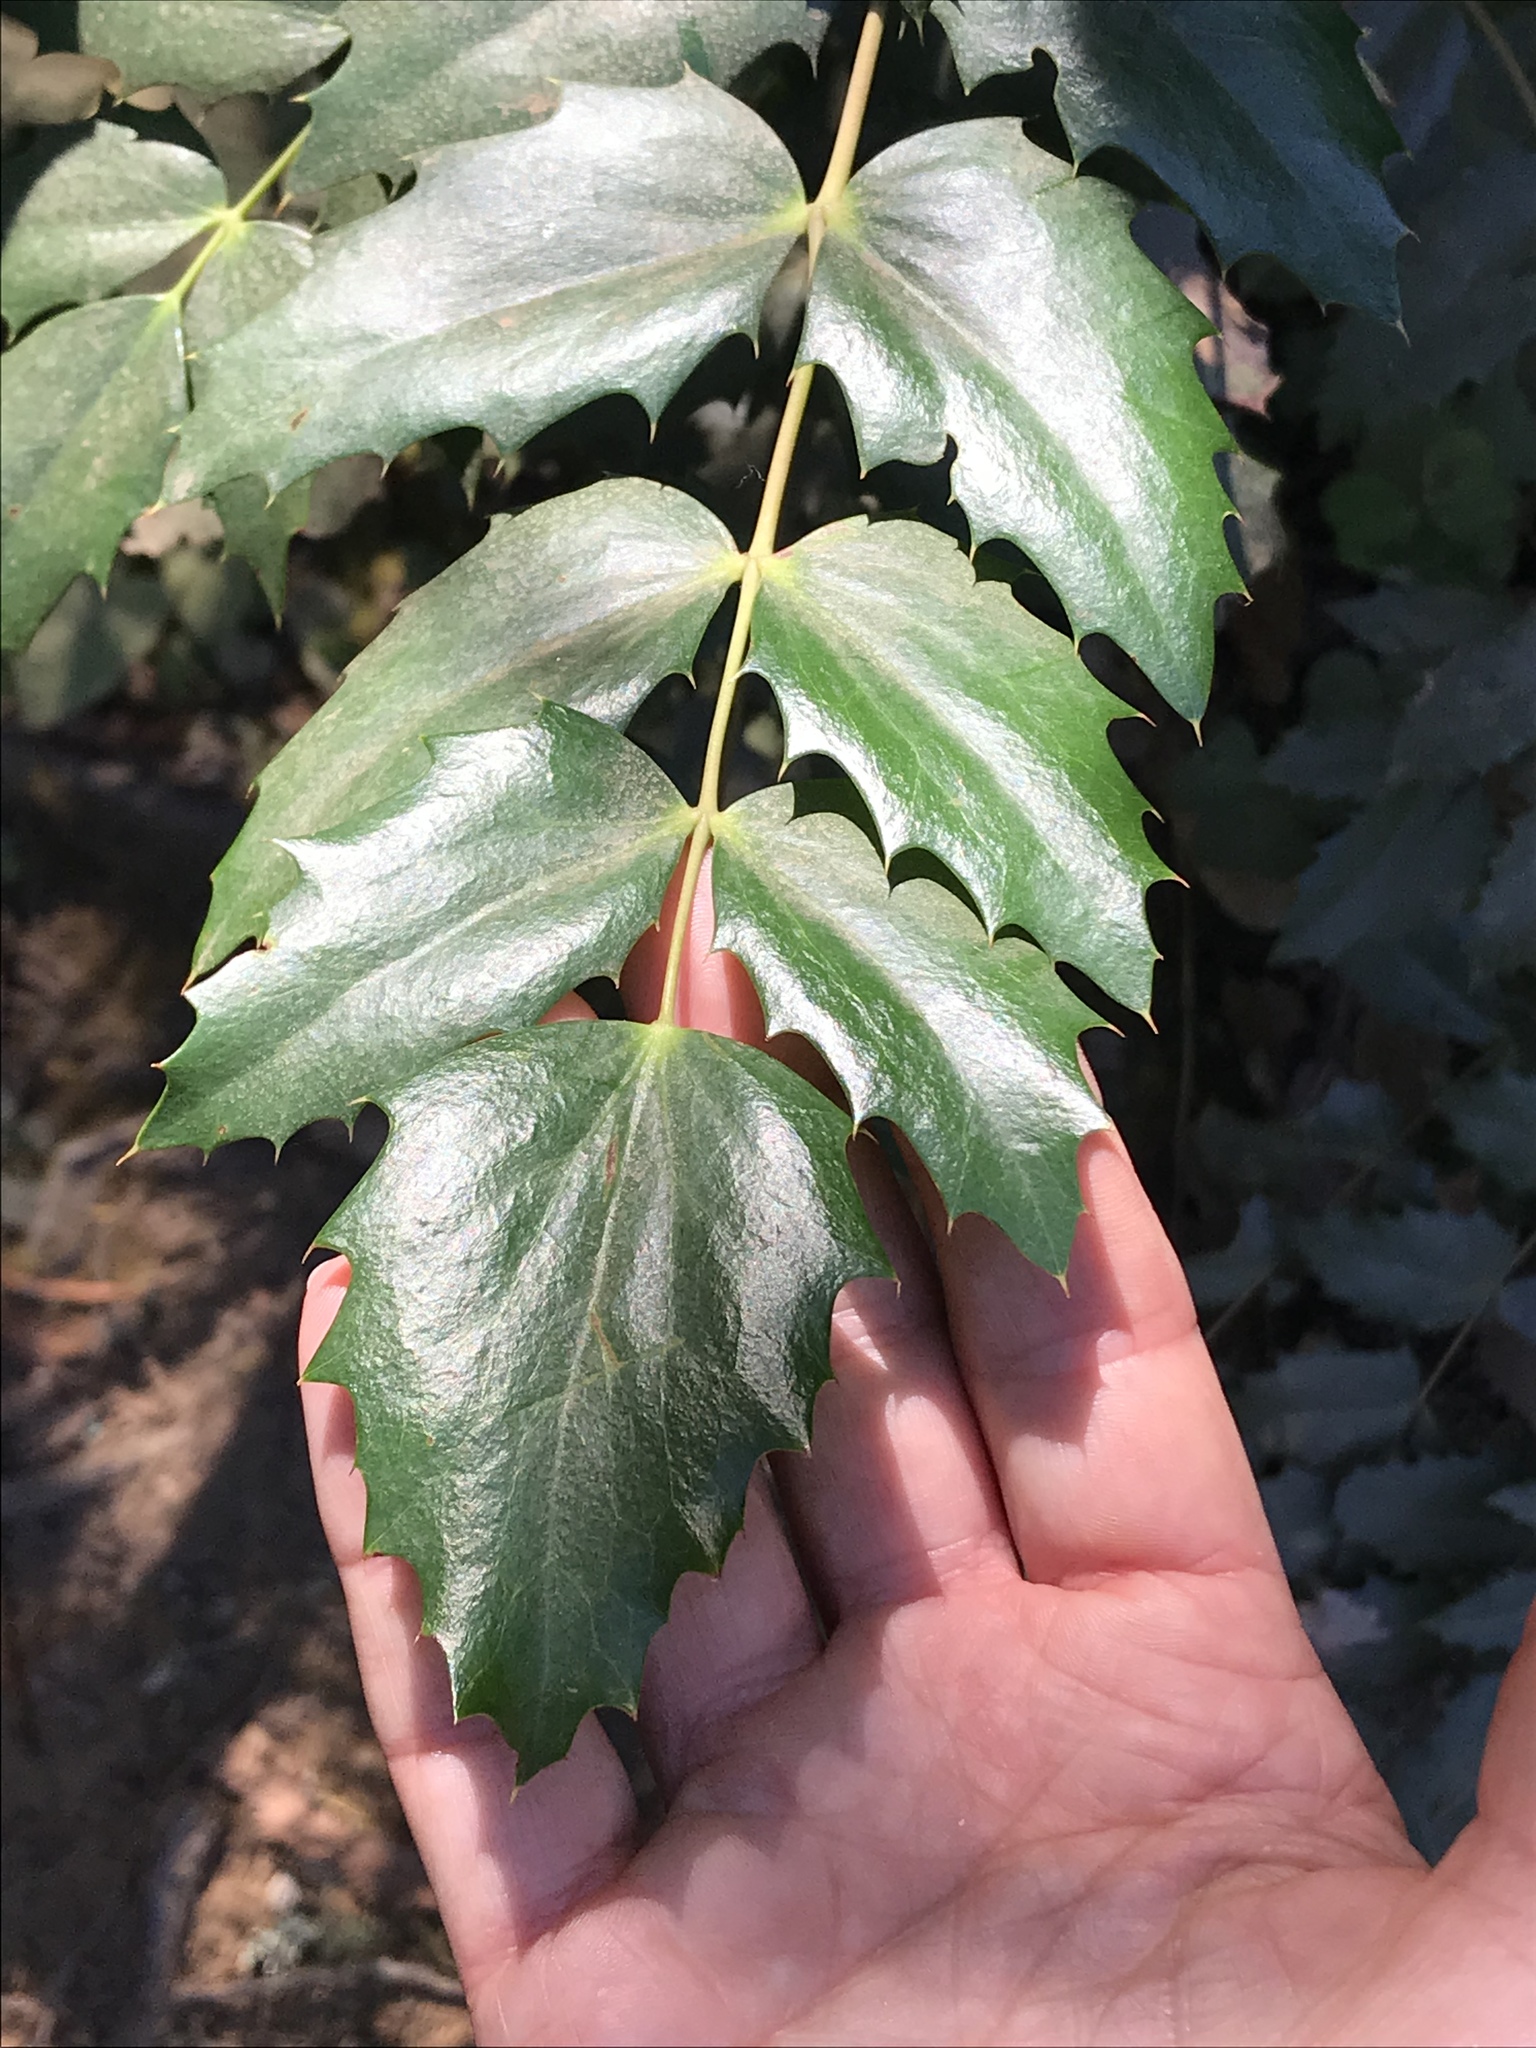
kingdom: Plantae
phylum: Tracheophyta
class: Magnoliopsida
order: Ranunculales
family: Berberidaceae
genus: Mahonia
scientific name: Mahonia nervosa
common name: Cascade oregon-grape
